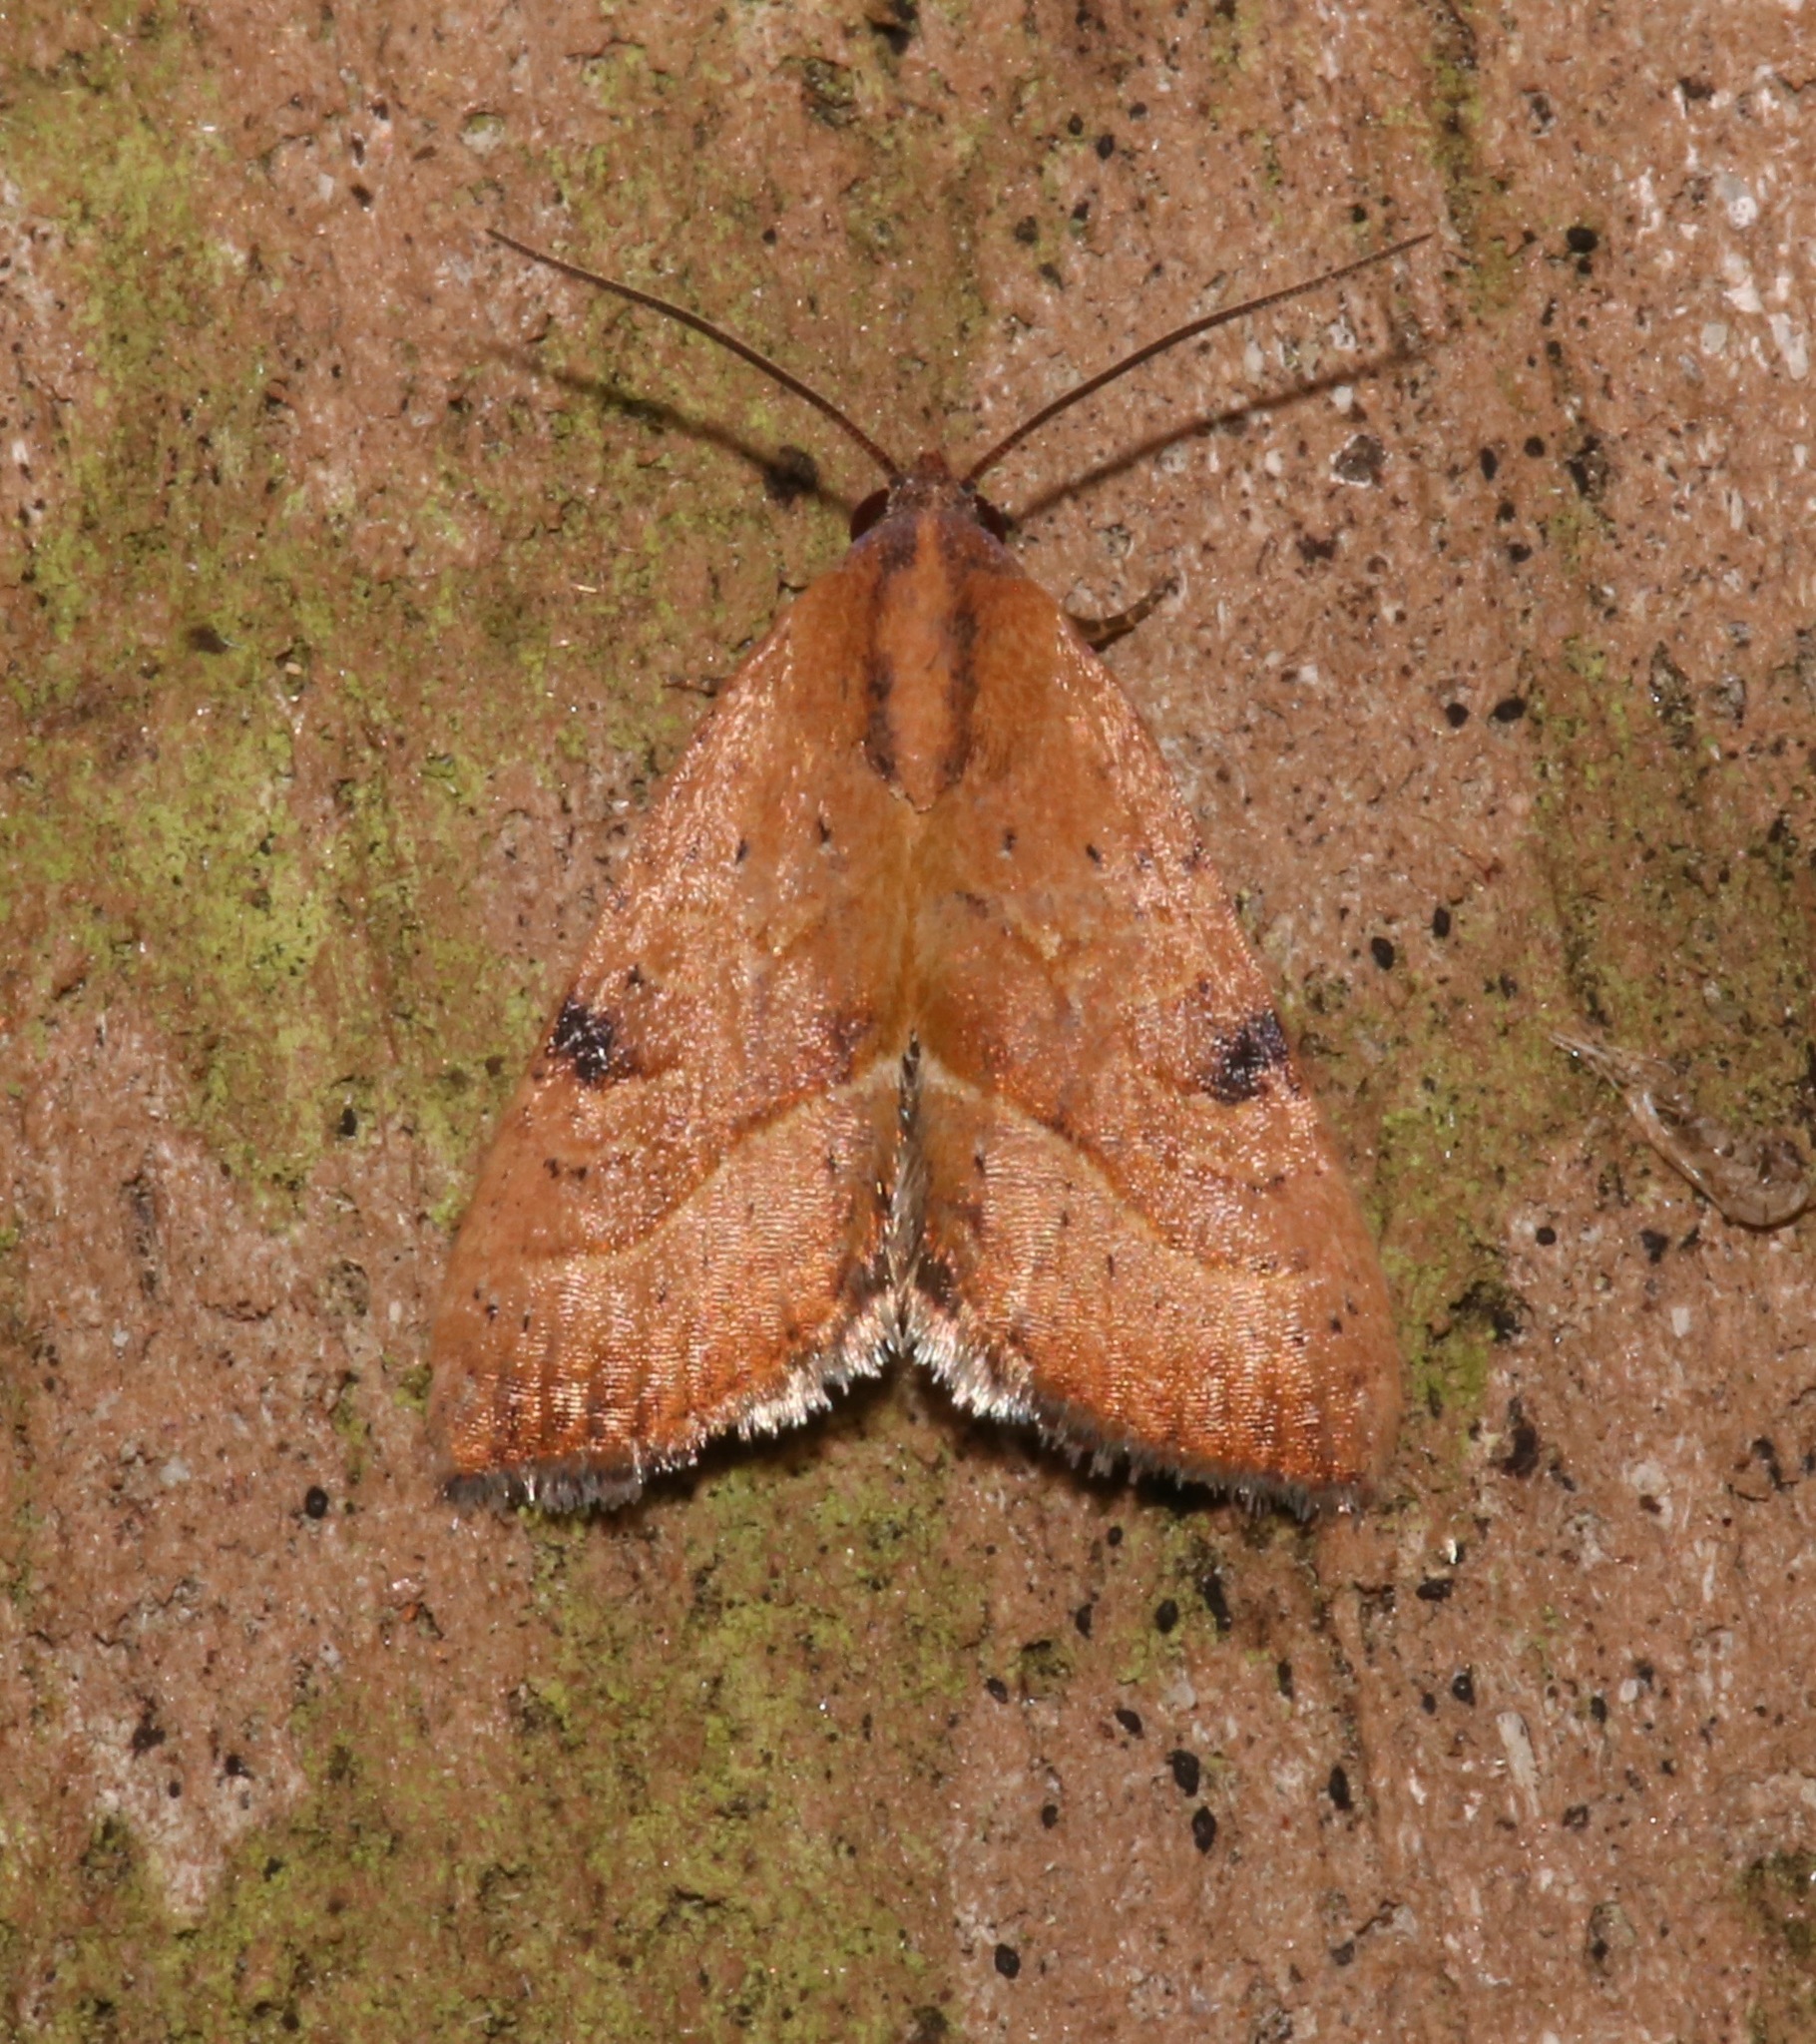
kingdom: Animalia
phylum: Arthropoda
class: Insecta
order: Lepidoptera
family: Noctuidae
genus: Galgula
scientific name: Galgula partita
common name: Wedgeling
